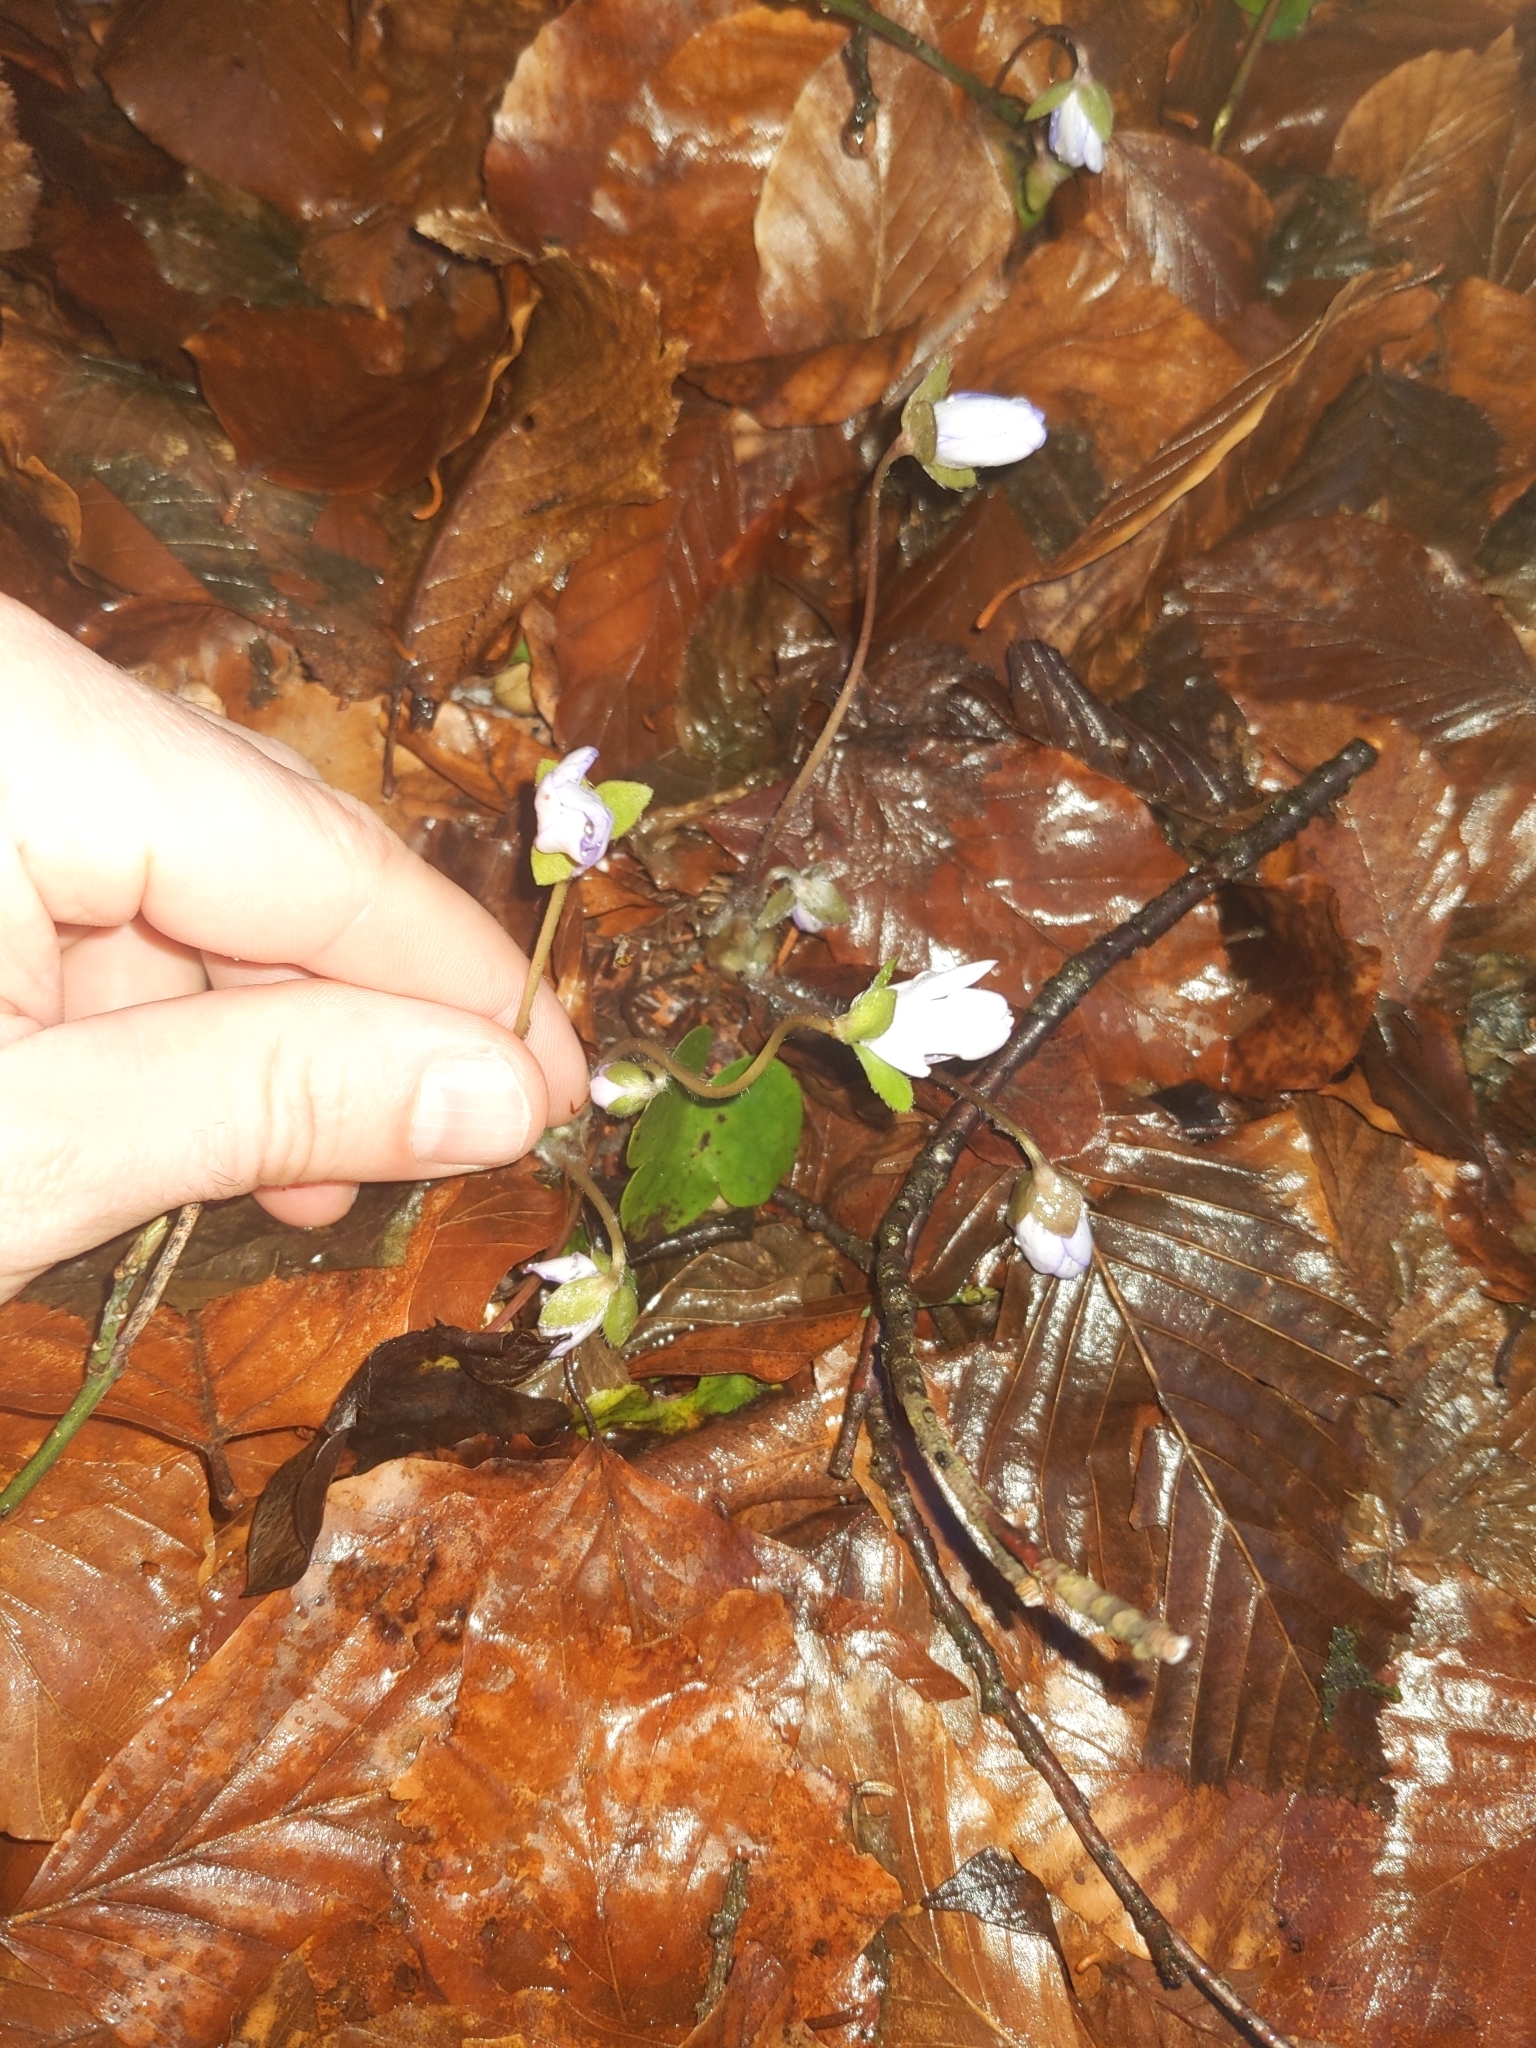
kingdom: Plantae
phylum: Tracheophyta
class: Magnoliopsida
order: Ranunculales
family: Ranunculaceae
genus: Hepatica
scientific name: Hepatica nobilis
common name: Liverleaf
